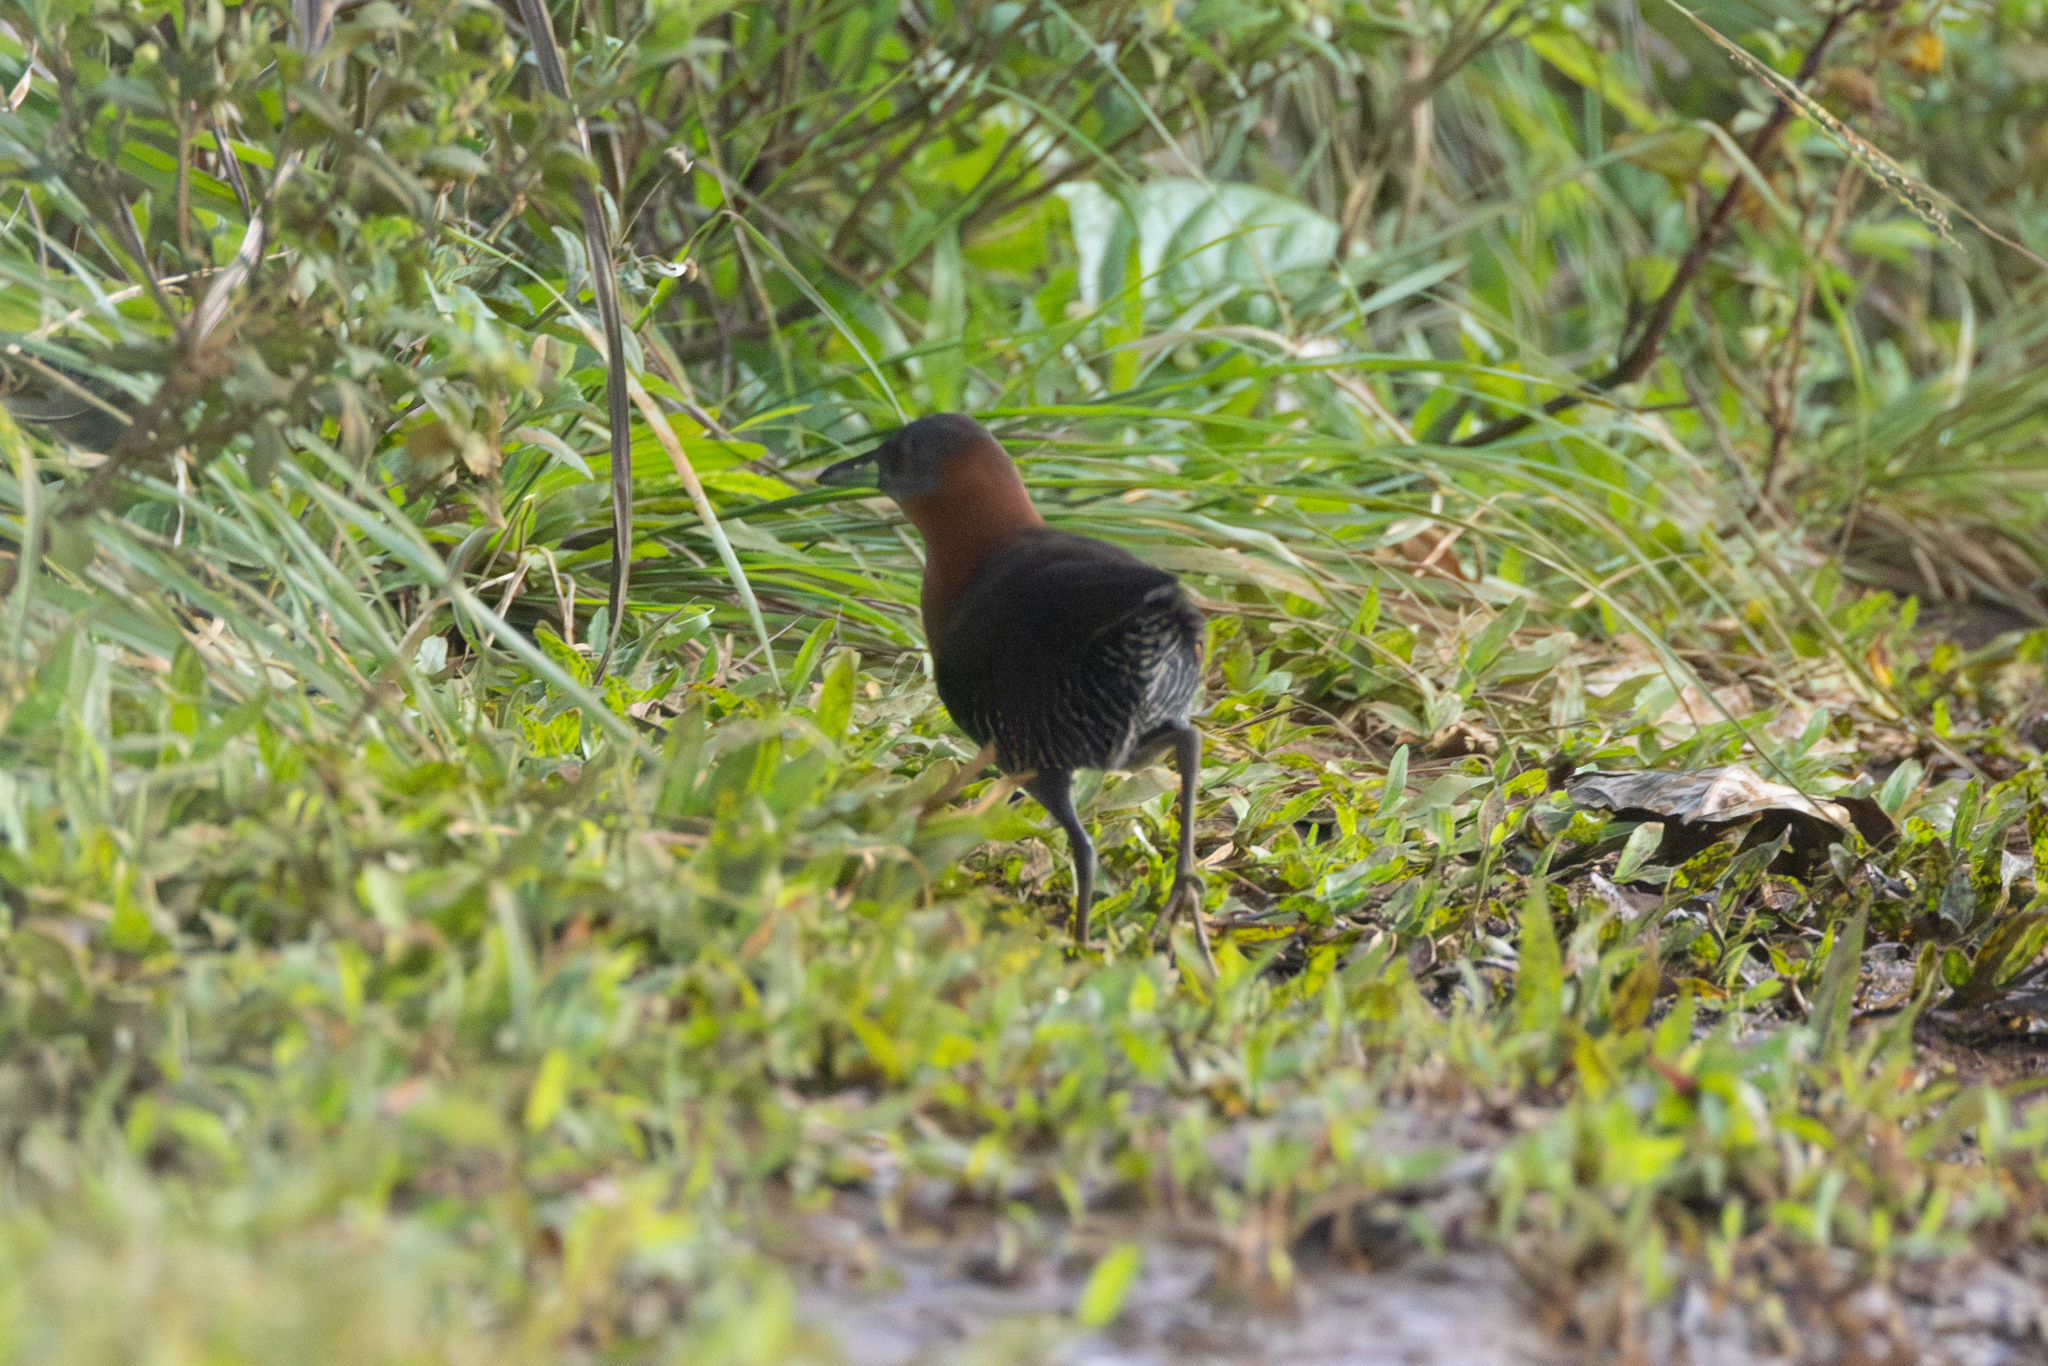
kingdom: Animalia
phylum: Chordata
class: Aves
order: Gruiformes
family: Rallidae
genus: Laterallus
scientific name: Laterallus albigularis
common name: White-throated crake
